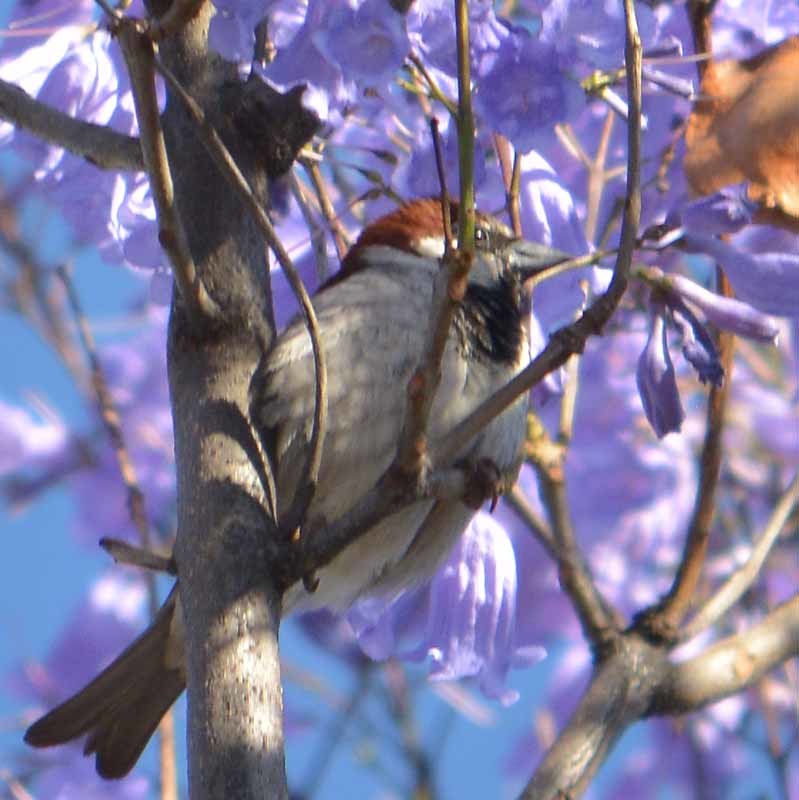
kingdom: Animalia
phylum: Chordata
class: Aves
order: Passeriformes
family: Passeridae
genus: Passer
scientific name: Passer domesticus
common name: House sparrow
